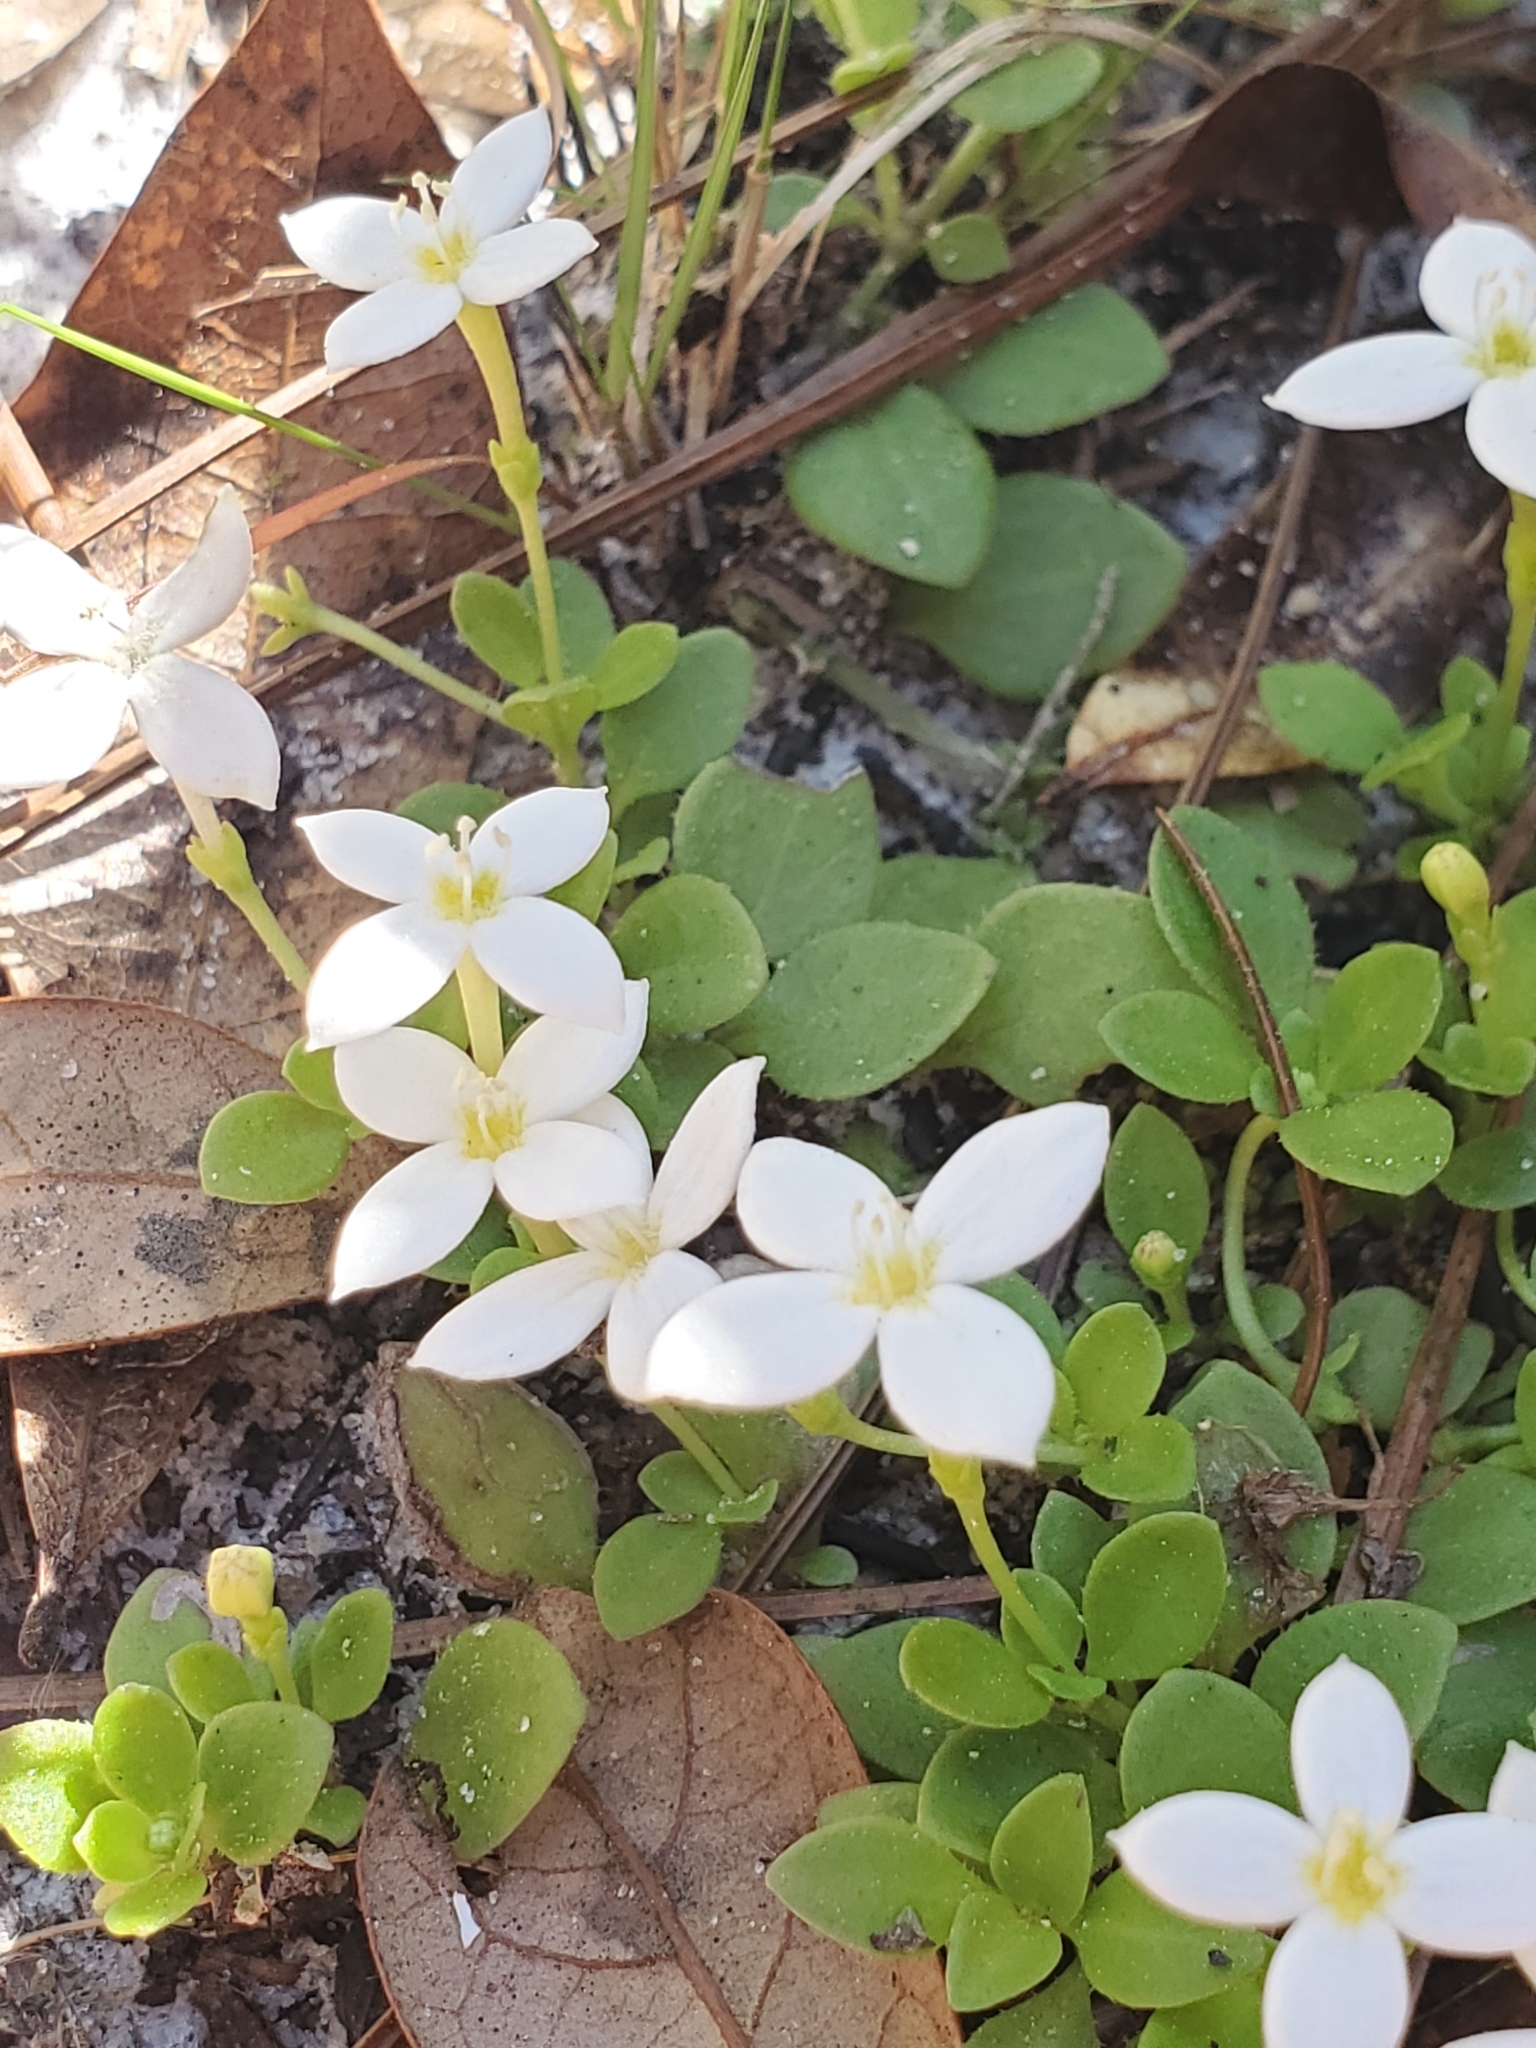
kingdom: Plantae
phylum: Tracheophyta
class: Magnoliopsida
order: Gentianales
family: Rubiaceae
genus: Houstonia
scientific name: Houstonia procumbens
